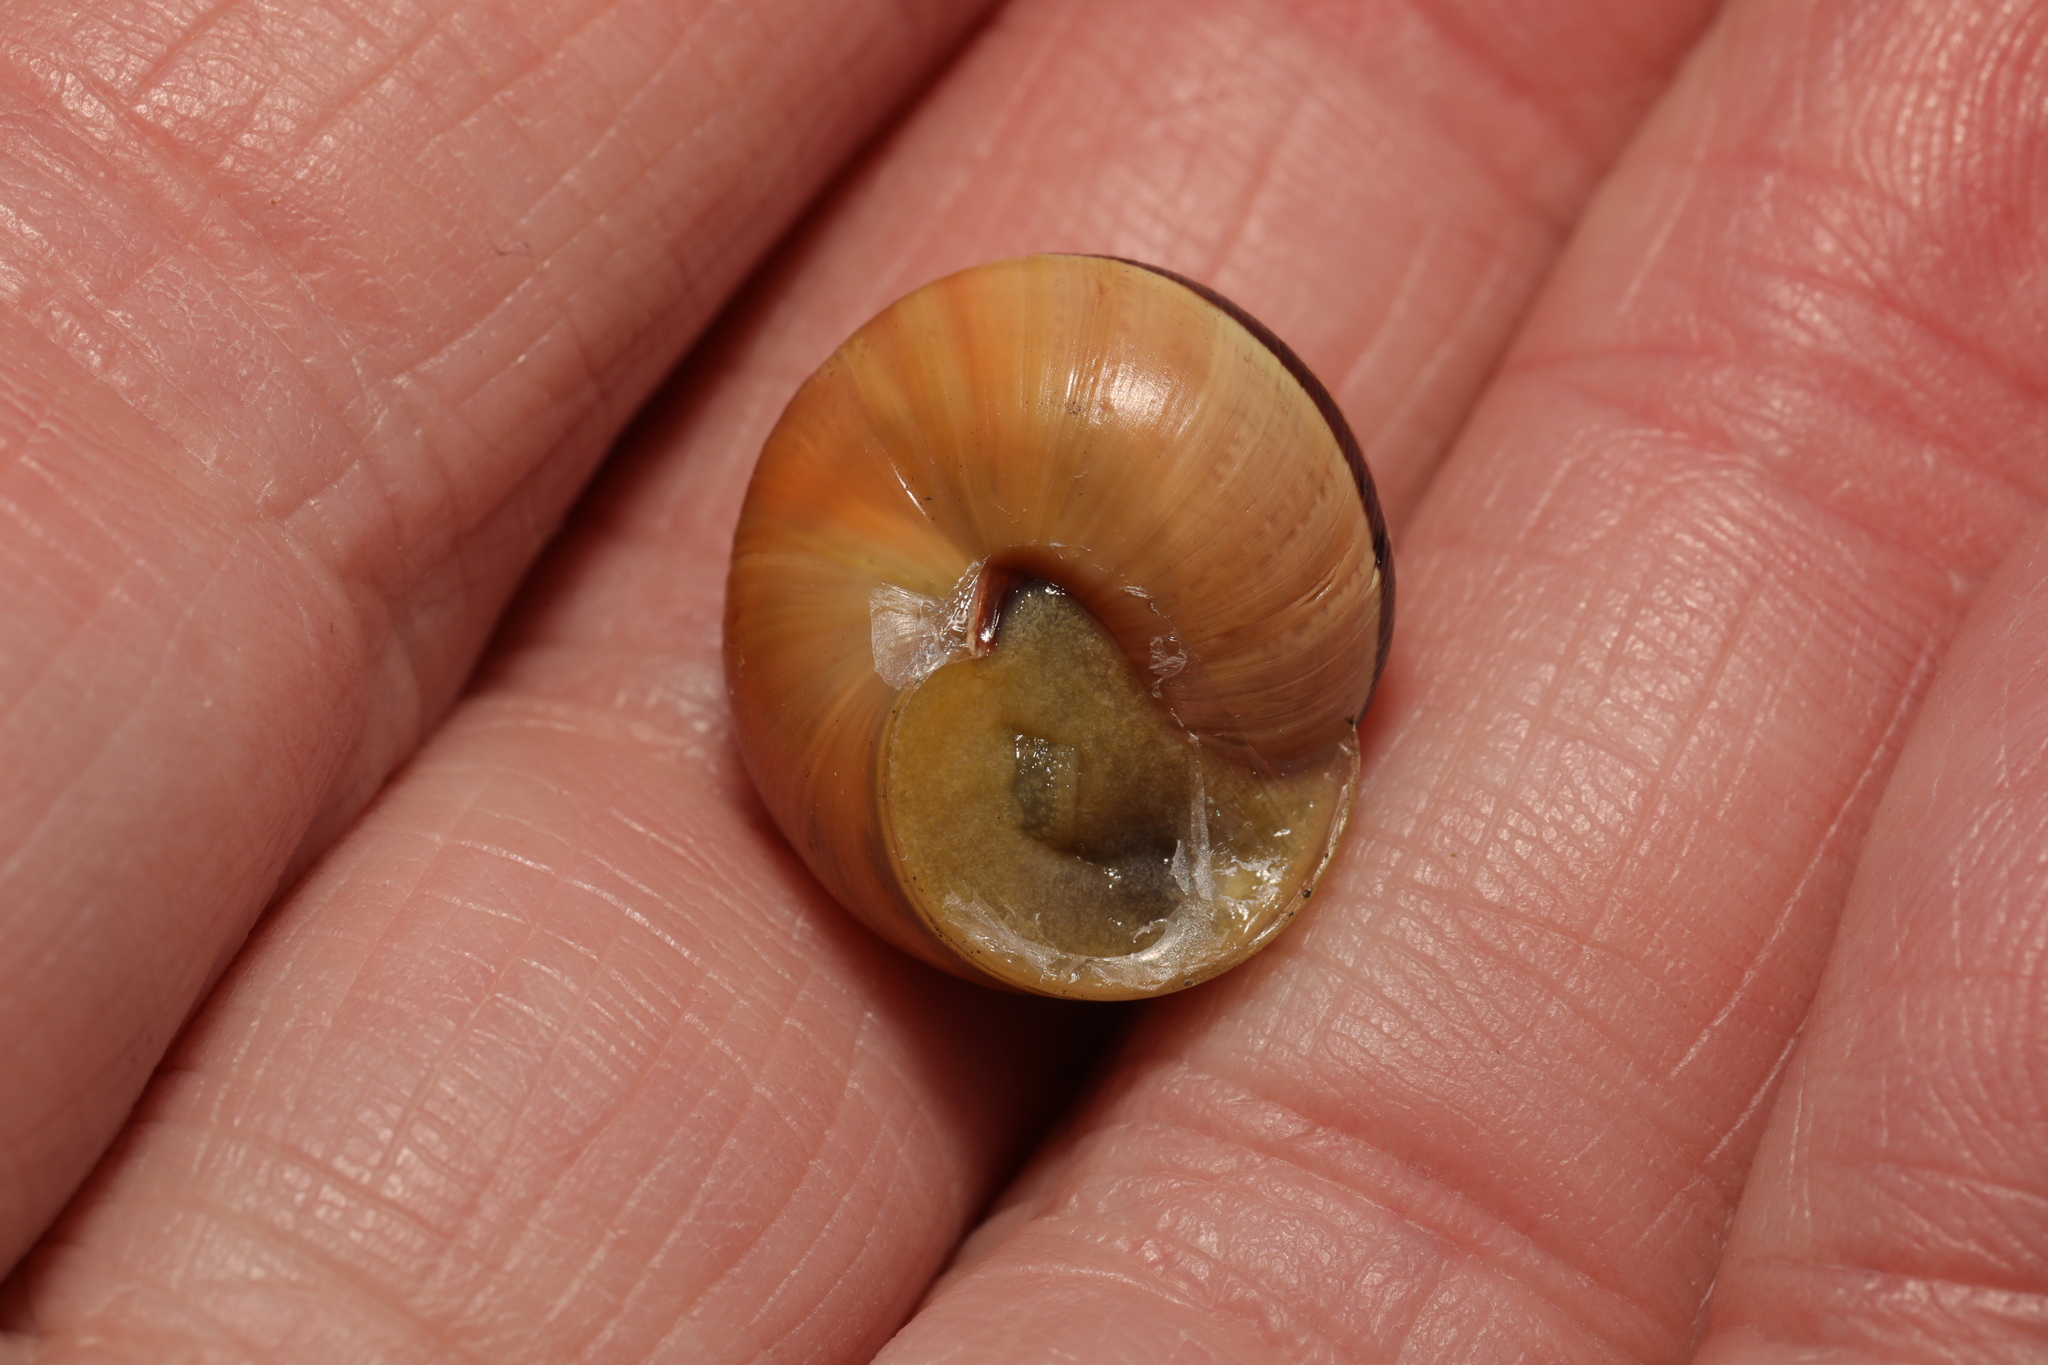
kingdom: Animalia
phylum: Mollusca
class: Gastropoda
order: Stylommatophora
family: Helicidae
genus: Cepaea
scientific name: Cepaea nemoralis
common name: Grovesnail
